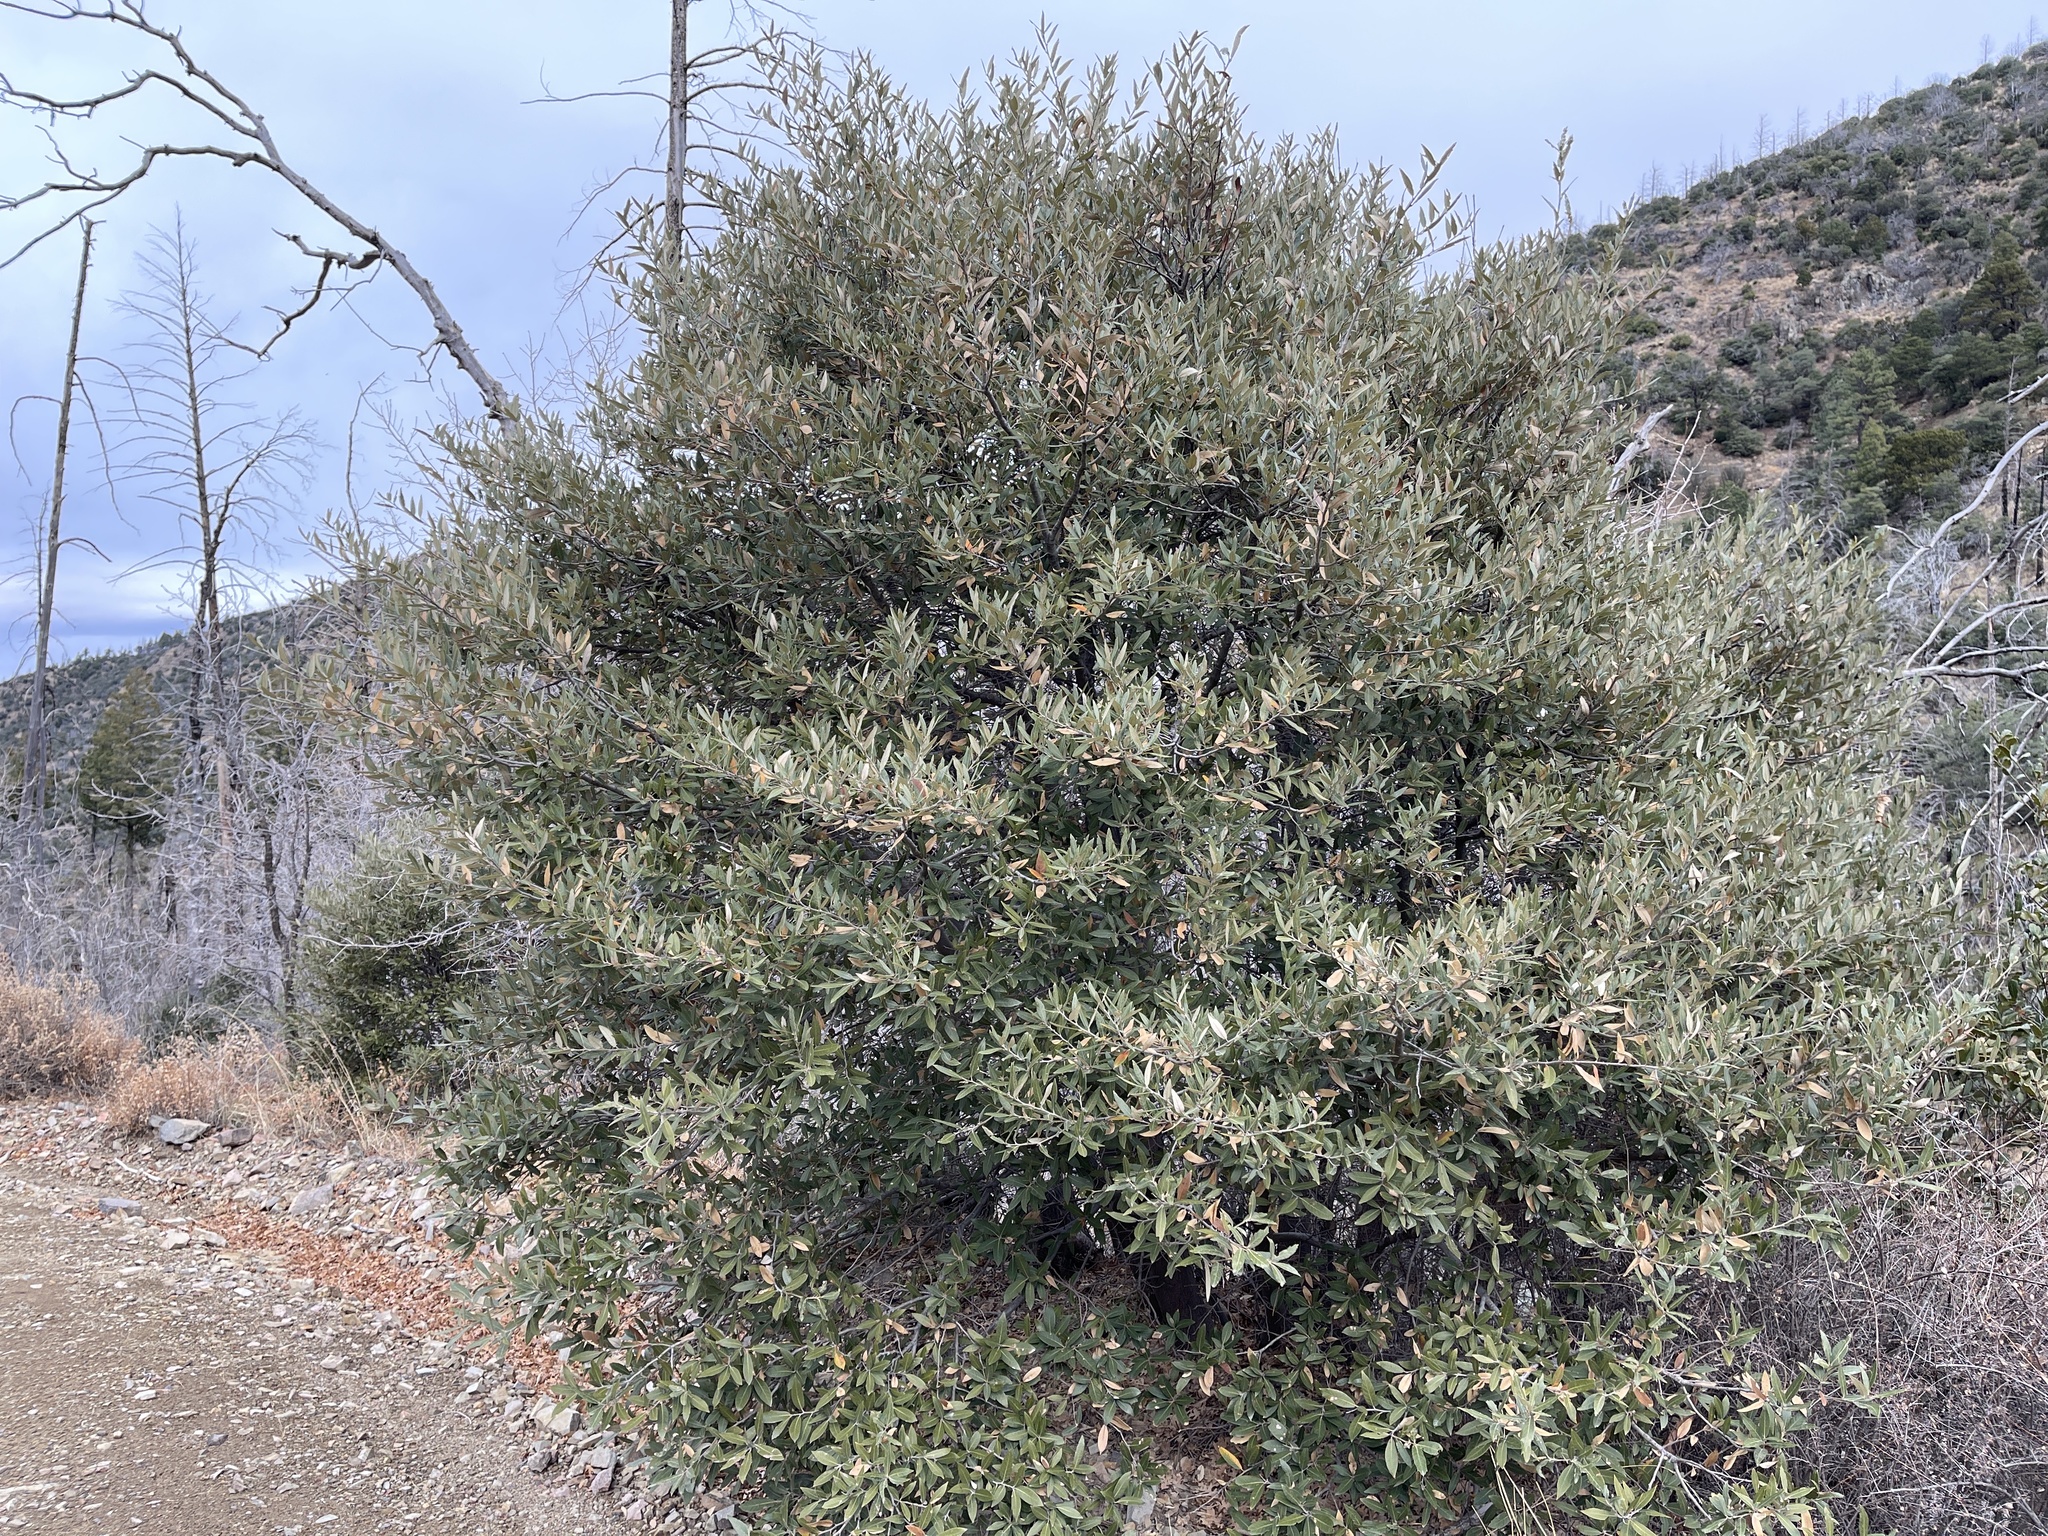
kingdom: Plantae
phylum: Tracheophyta
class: Magnoliopsida
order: Fagales
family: Fagaceae
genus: Quercus
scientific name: Quercus hypoleucoides
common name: Silverleaf oak
